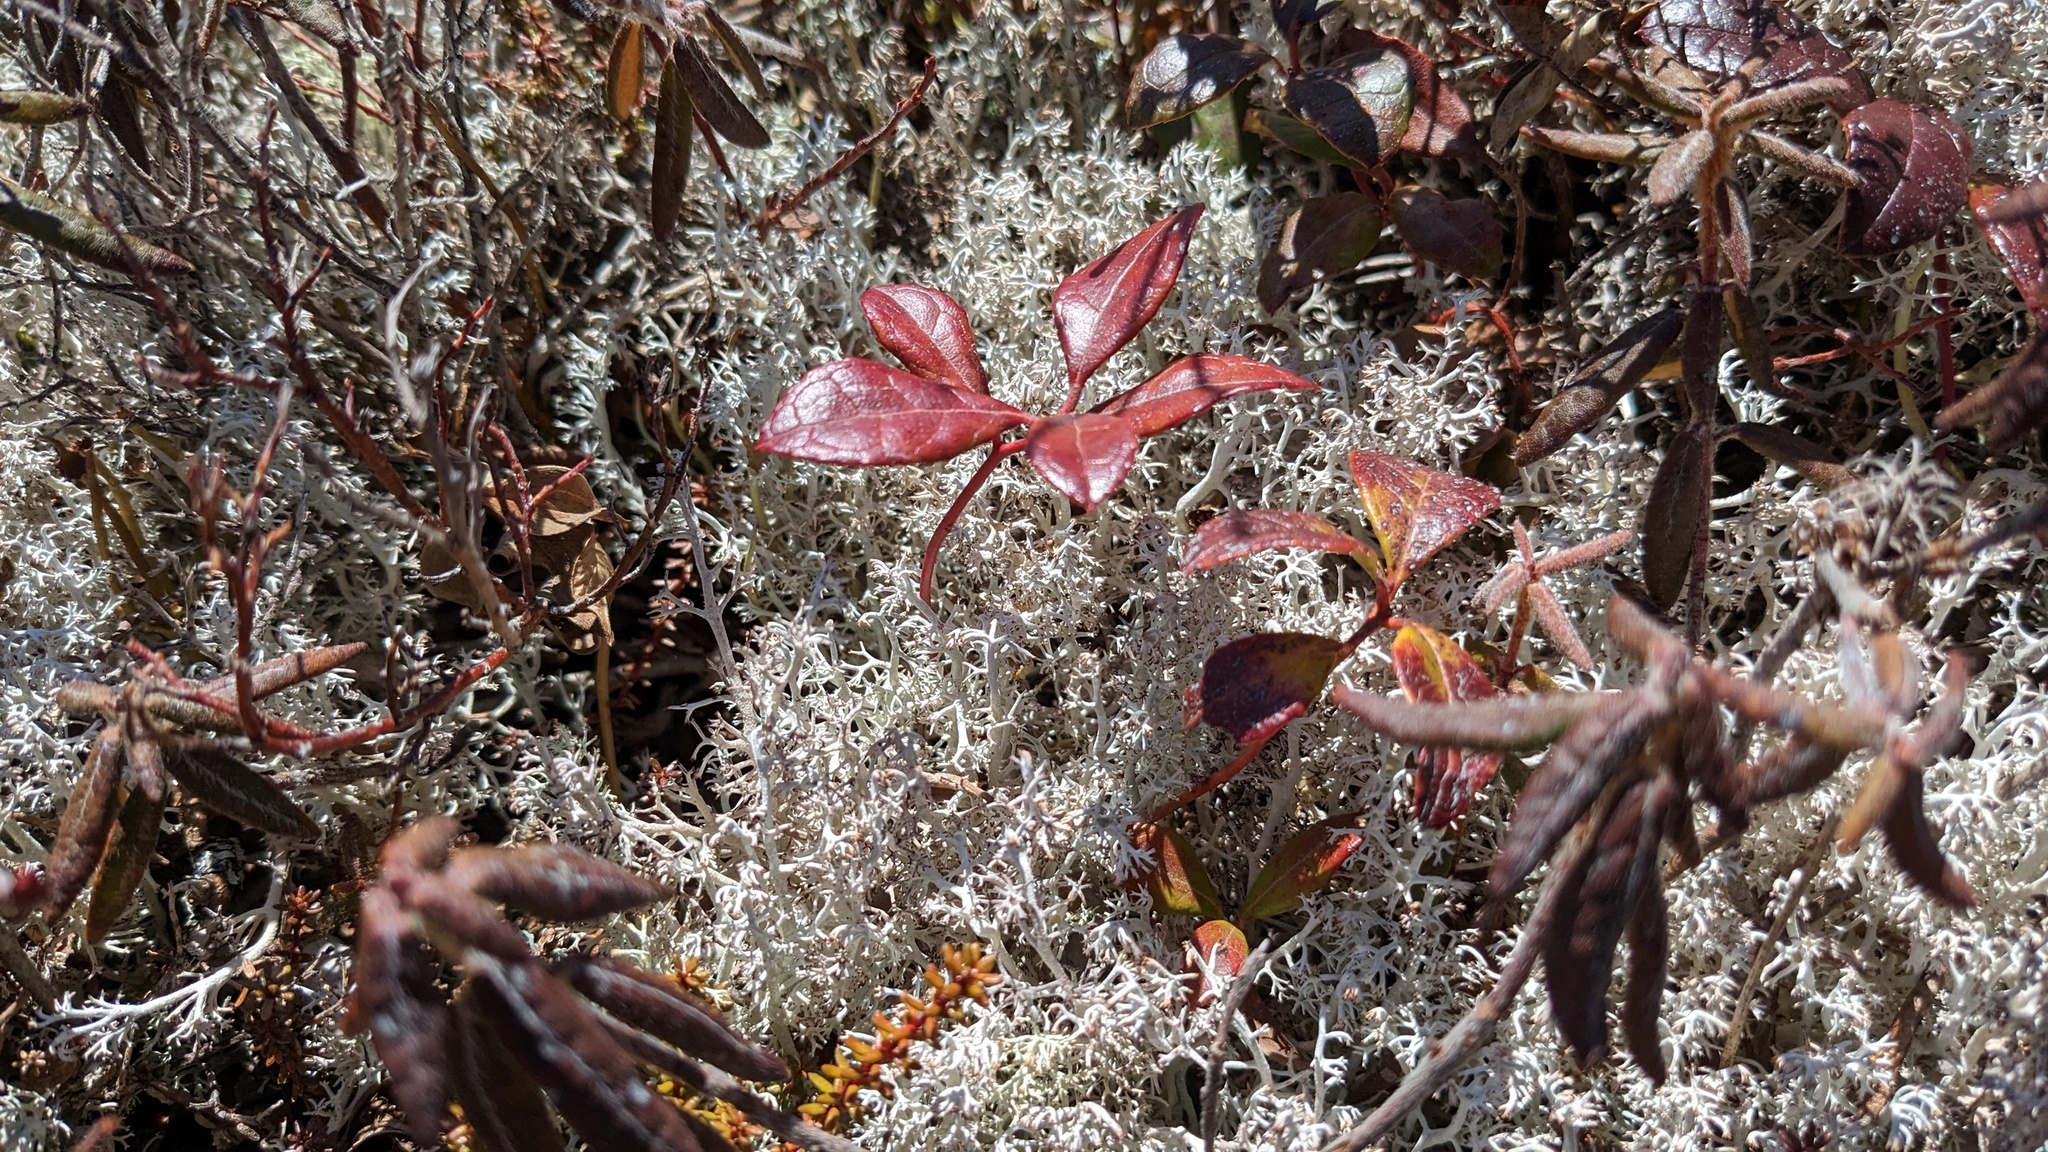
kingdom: Plantae
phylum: Tracheophyta
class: Magnoliopsida
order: Fagales
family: Myricaceae
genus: Morella
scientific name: Morella pensylvanica
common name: Northern bayberry
